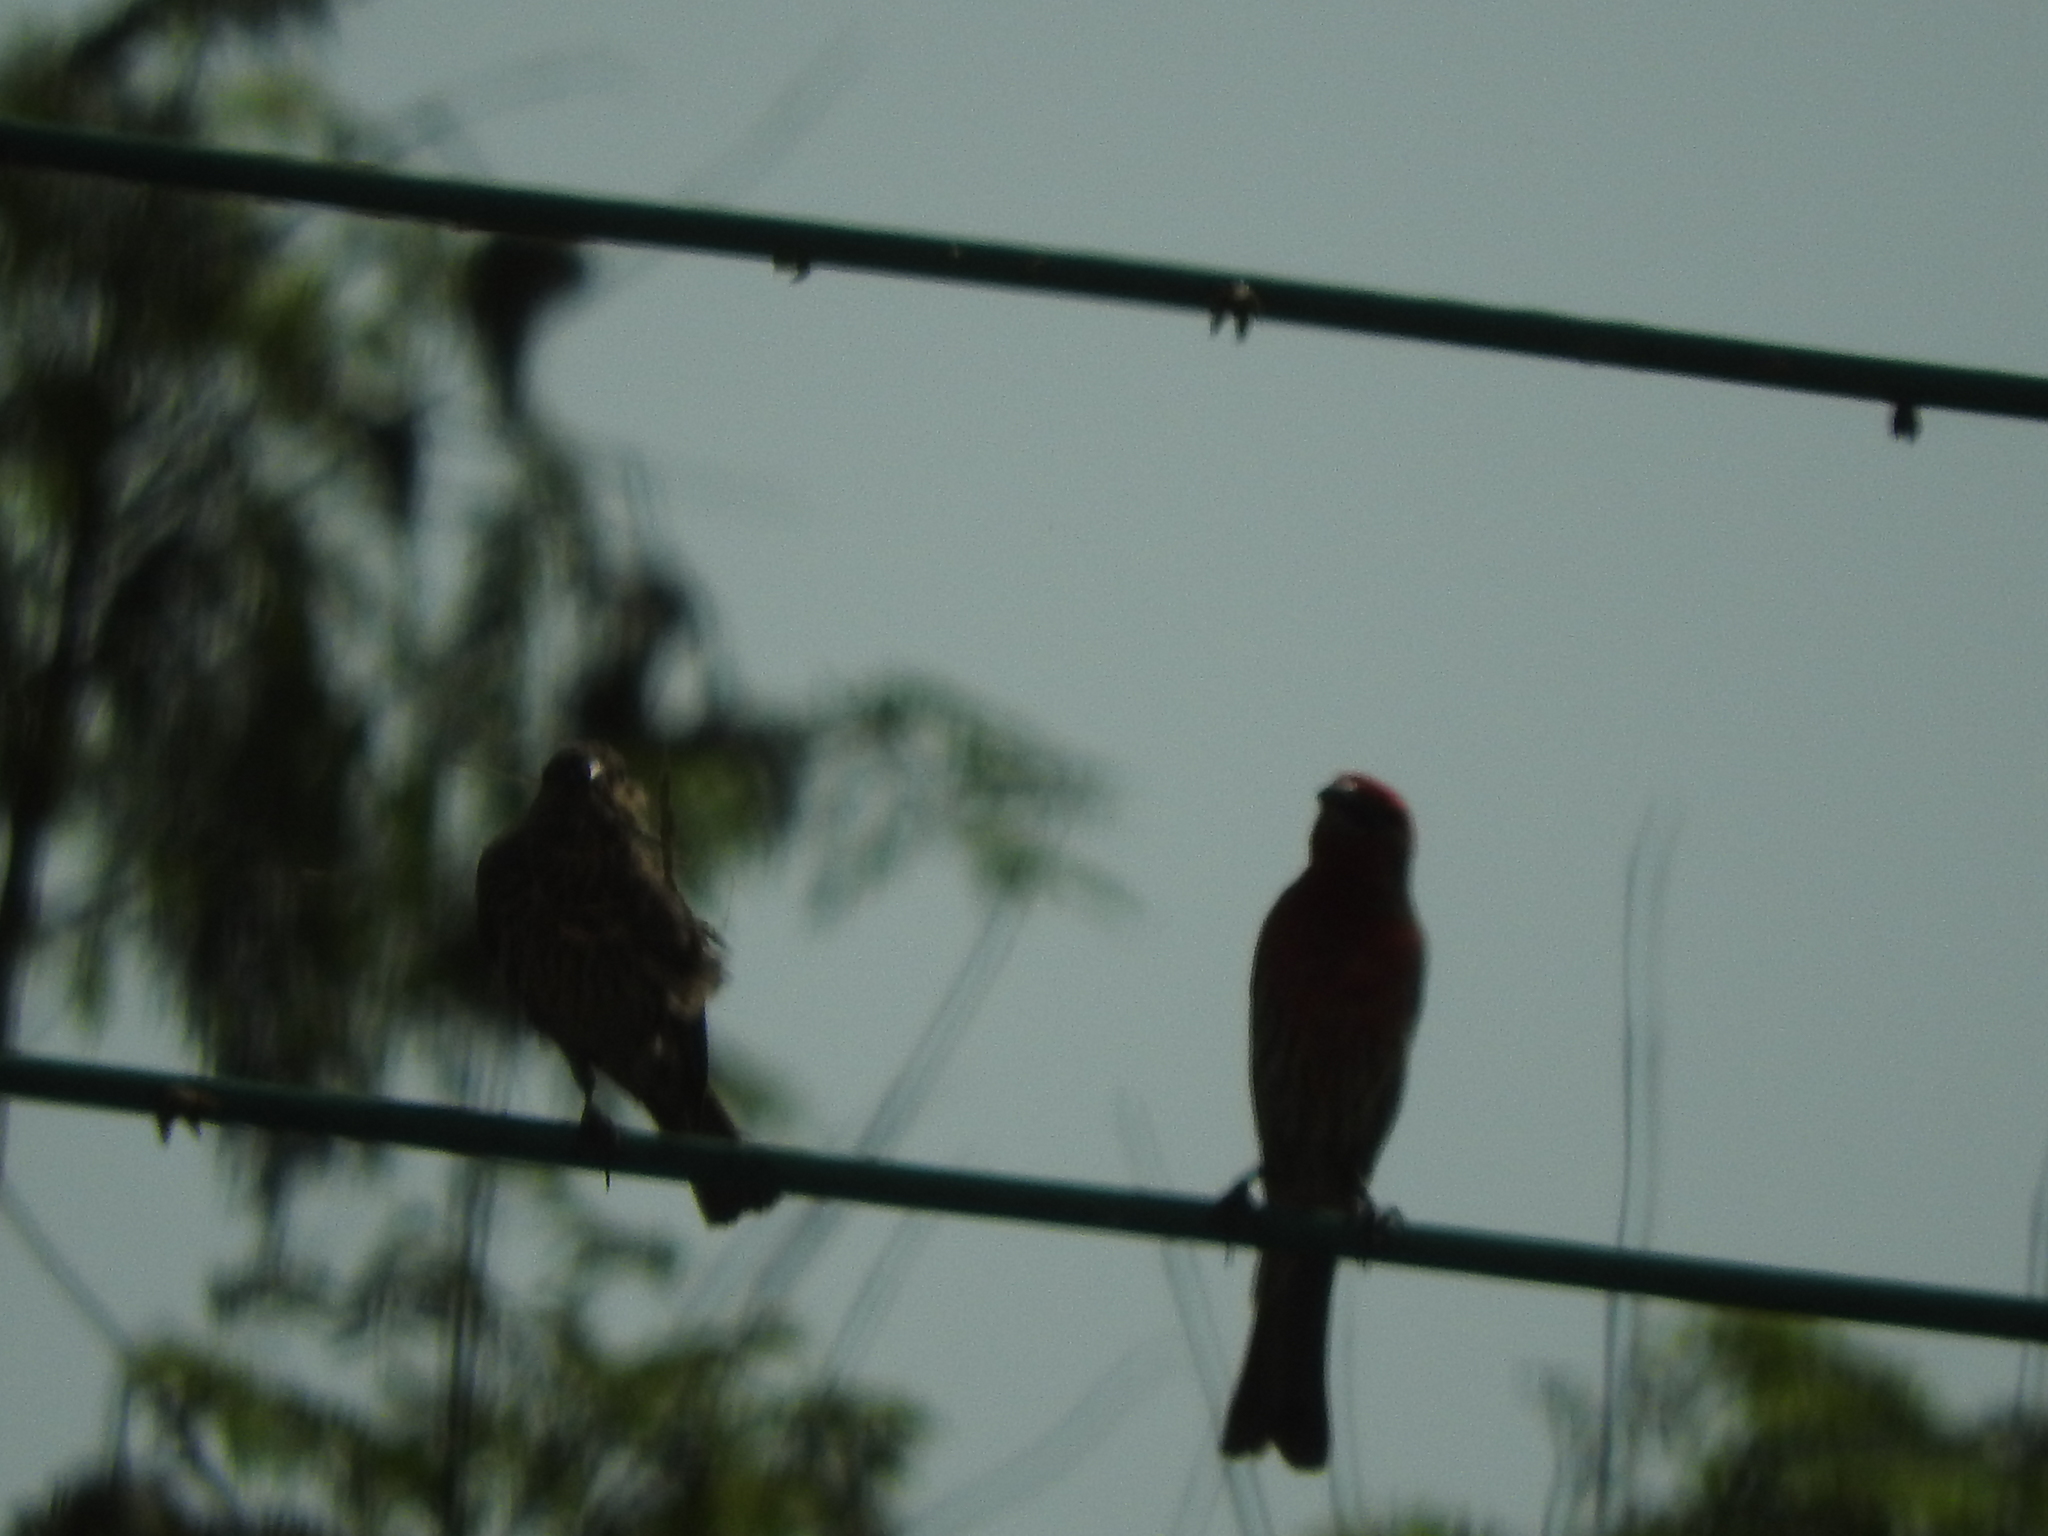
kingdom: Animalia
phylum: Chordata
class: Aves
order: Passeriformes
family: Fringillidae
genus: Haemorhous
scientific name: Haemorhous mexicanus
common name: House finch
